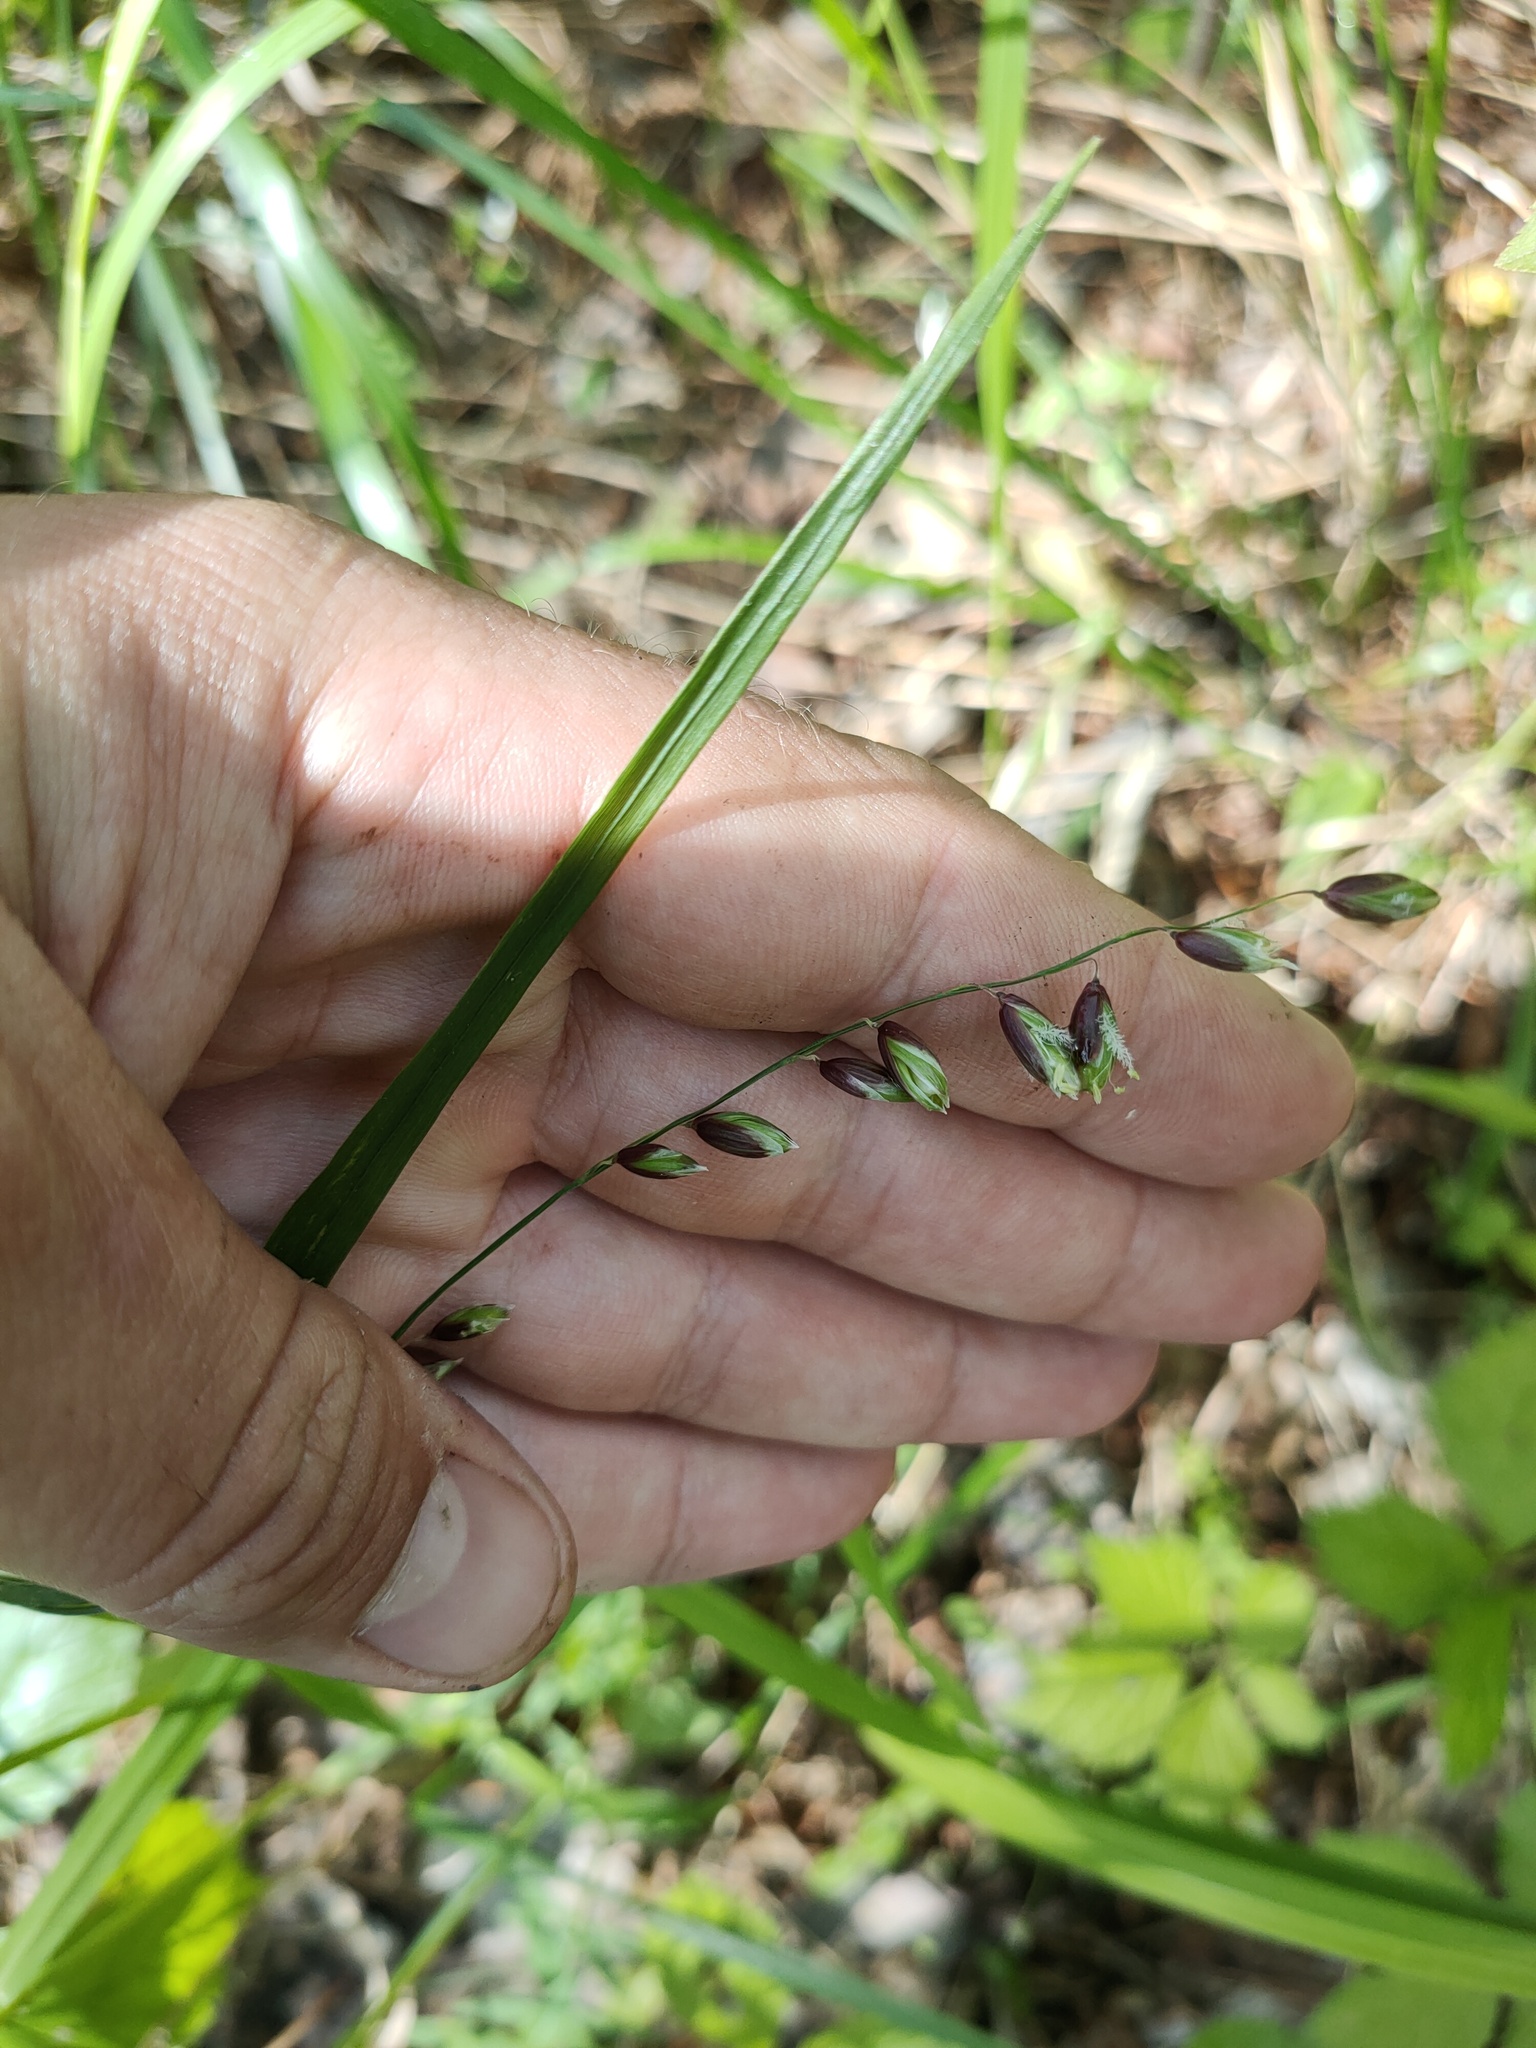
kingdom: Plantae
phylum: Tracheophyta
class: Liliopsida
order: Poales
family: Poaceae
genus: Melica
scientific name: Melica nutans
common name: Mountain melick
